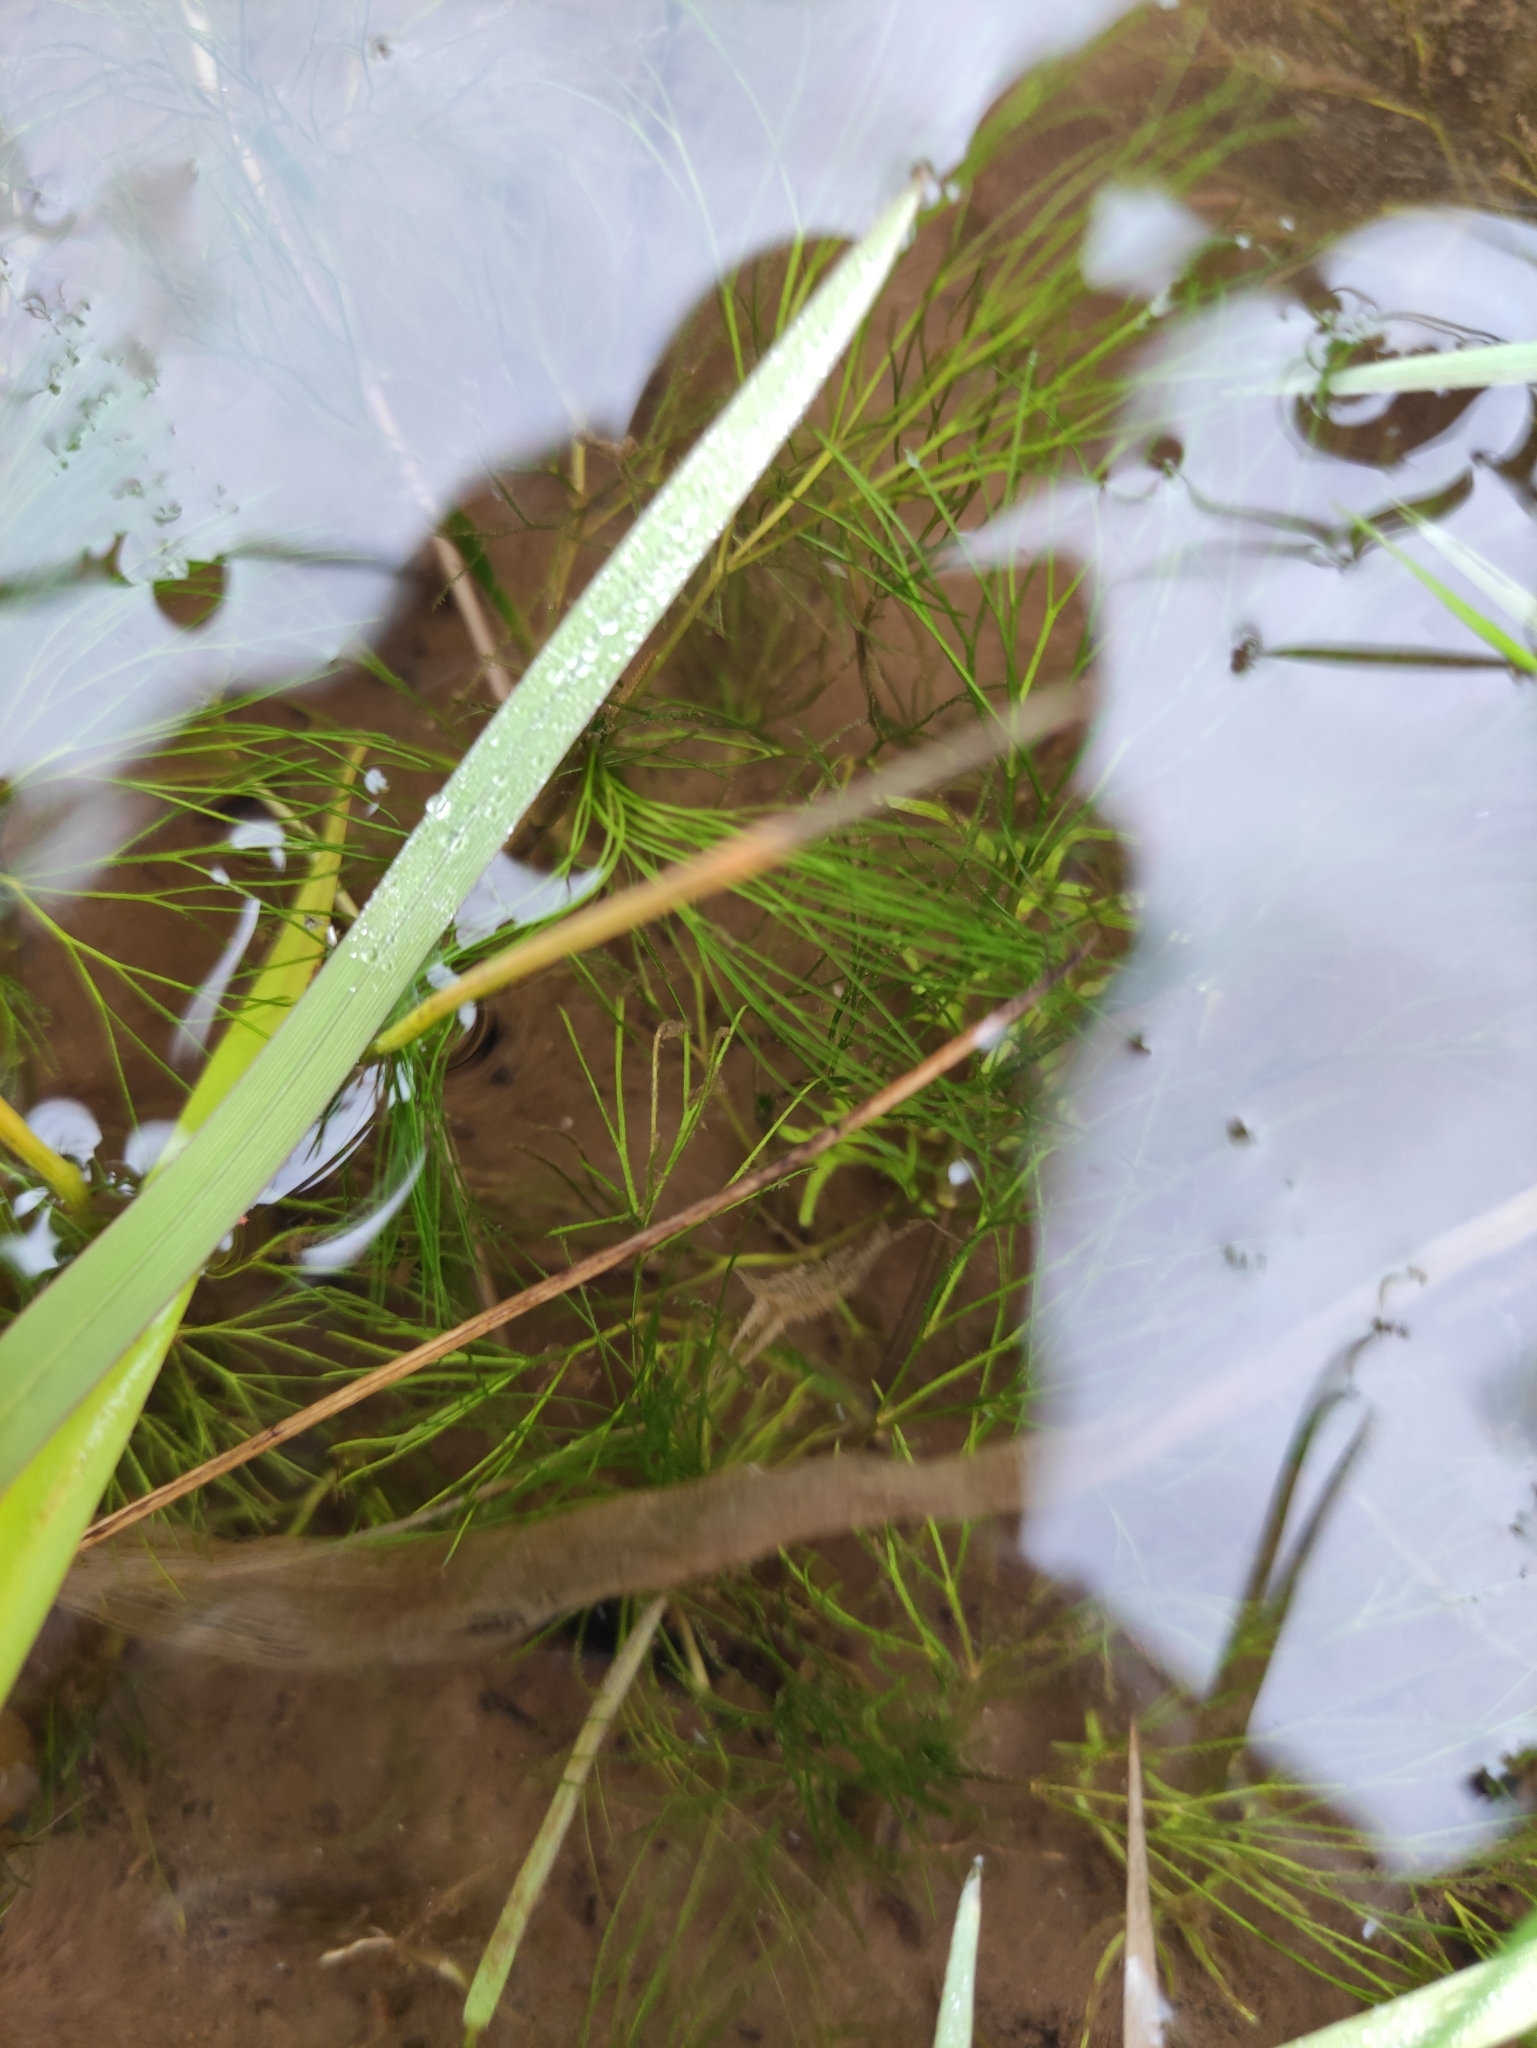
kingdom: Plantae
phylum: Tracheophyta
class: Magnoliopsida
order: Ranunculales
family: Ranunculaceae
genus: Ranunculus
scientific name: Ranunculus kauffmanii
